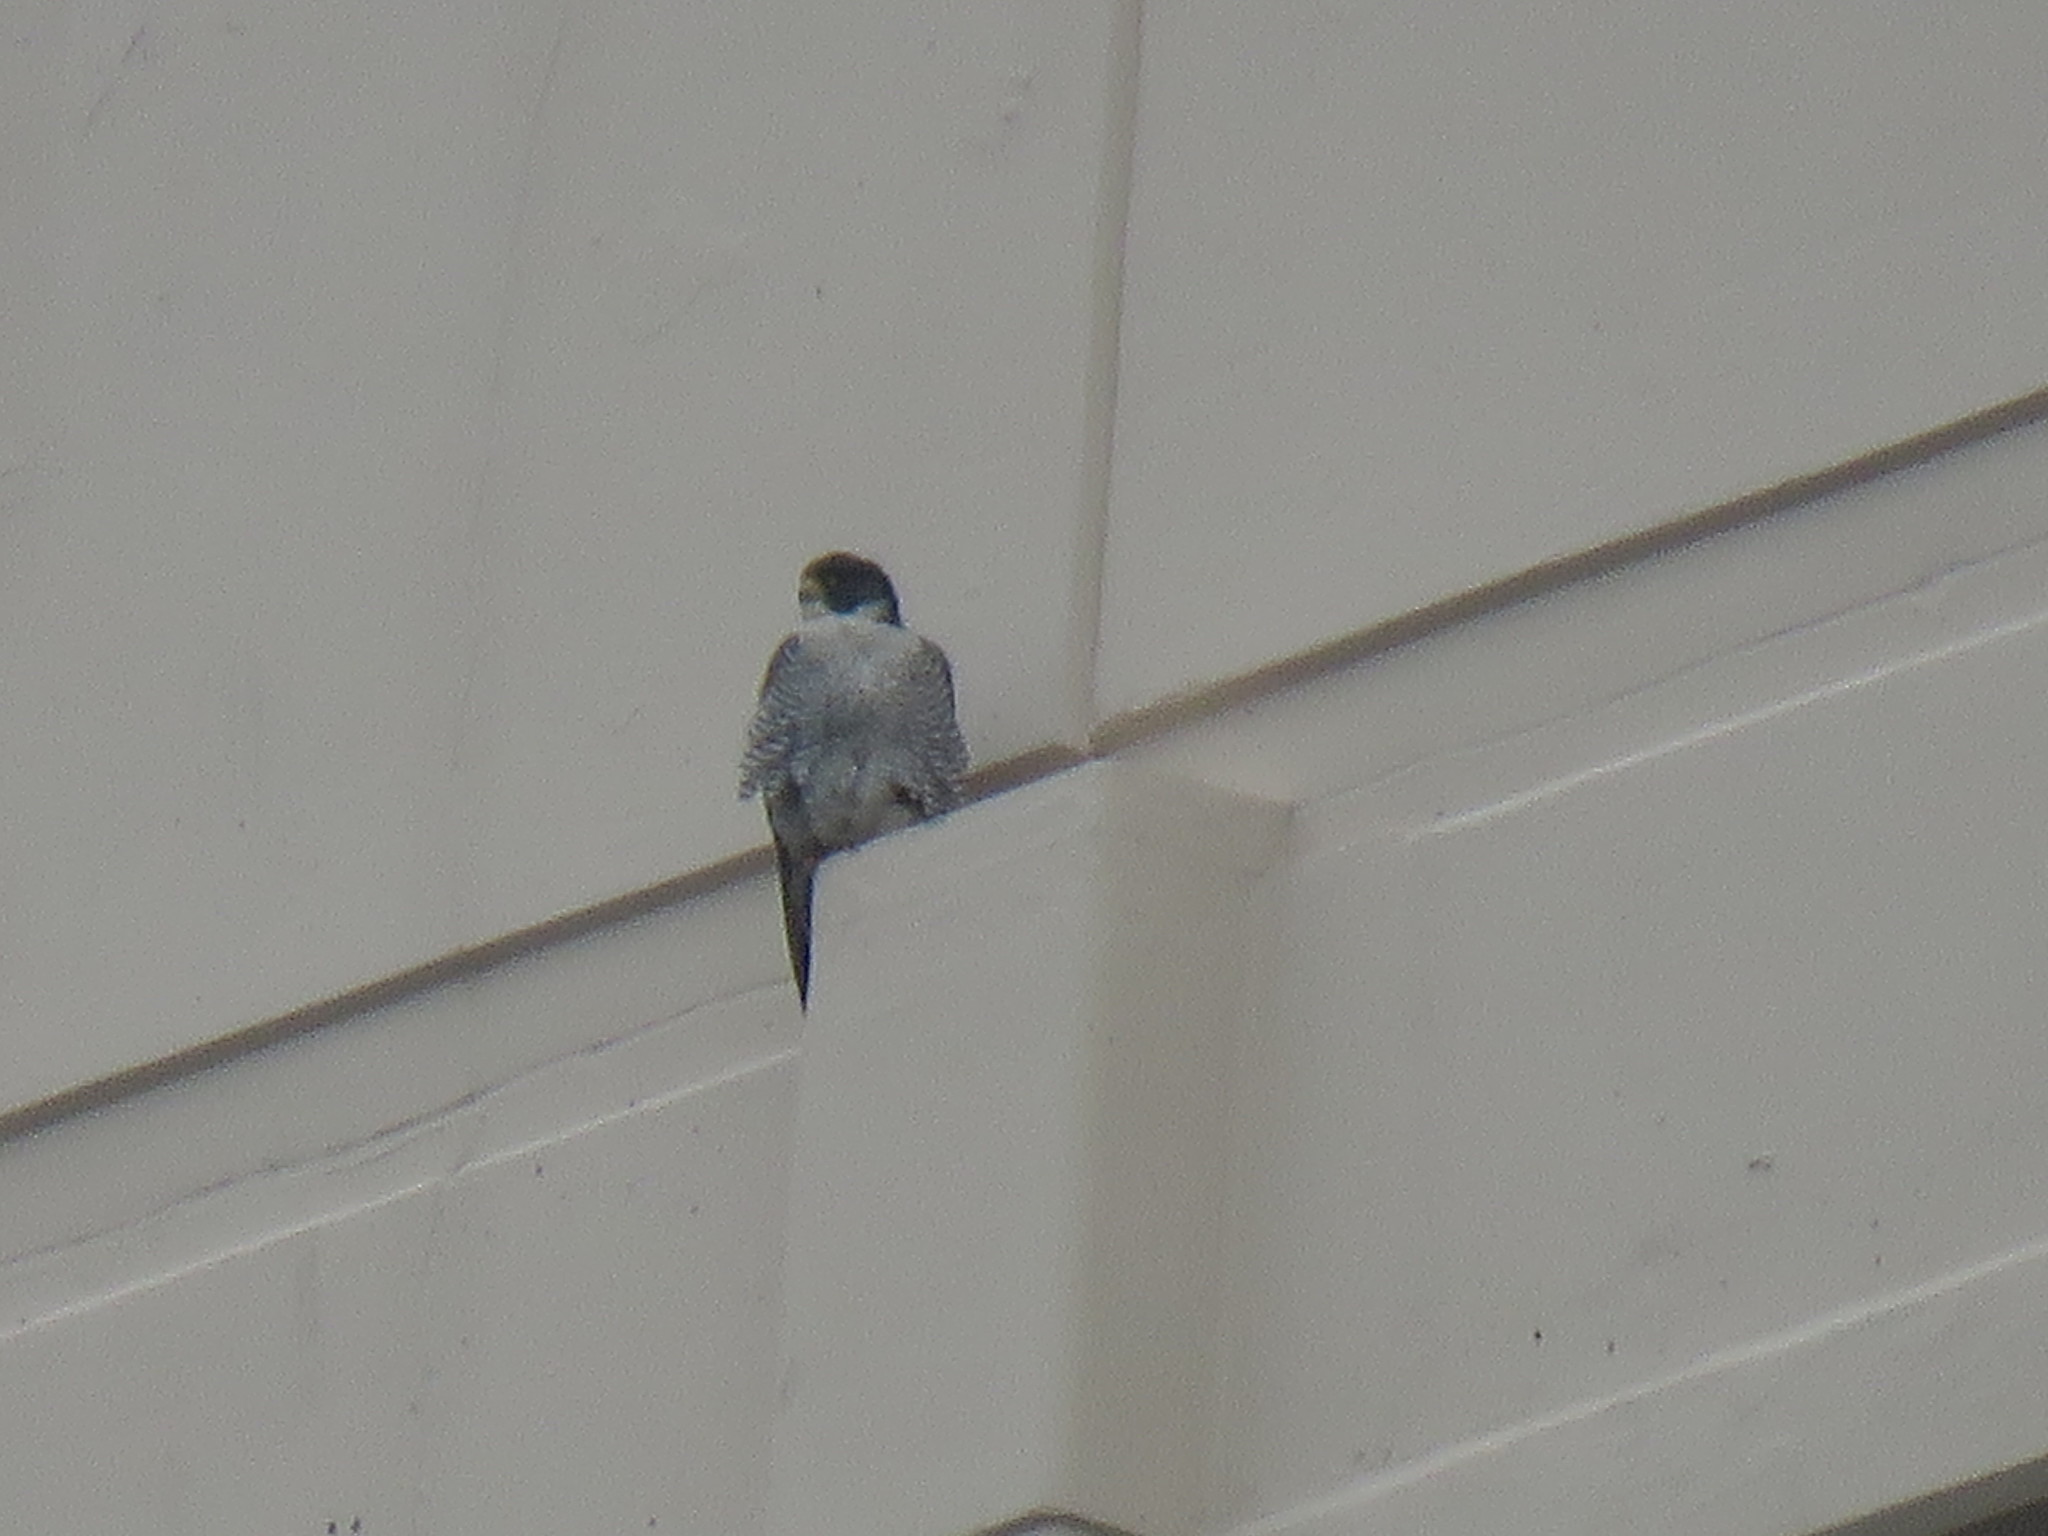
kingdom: Animalia
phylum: Chordata
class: Aves
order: Falconiformes
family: Falconidae
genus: Falco
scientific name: Falco peregrinus
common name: Peregrine falcon
